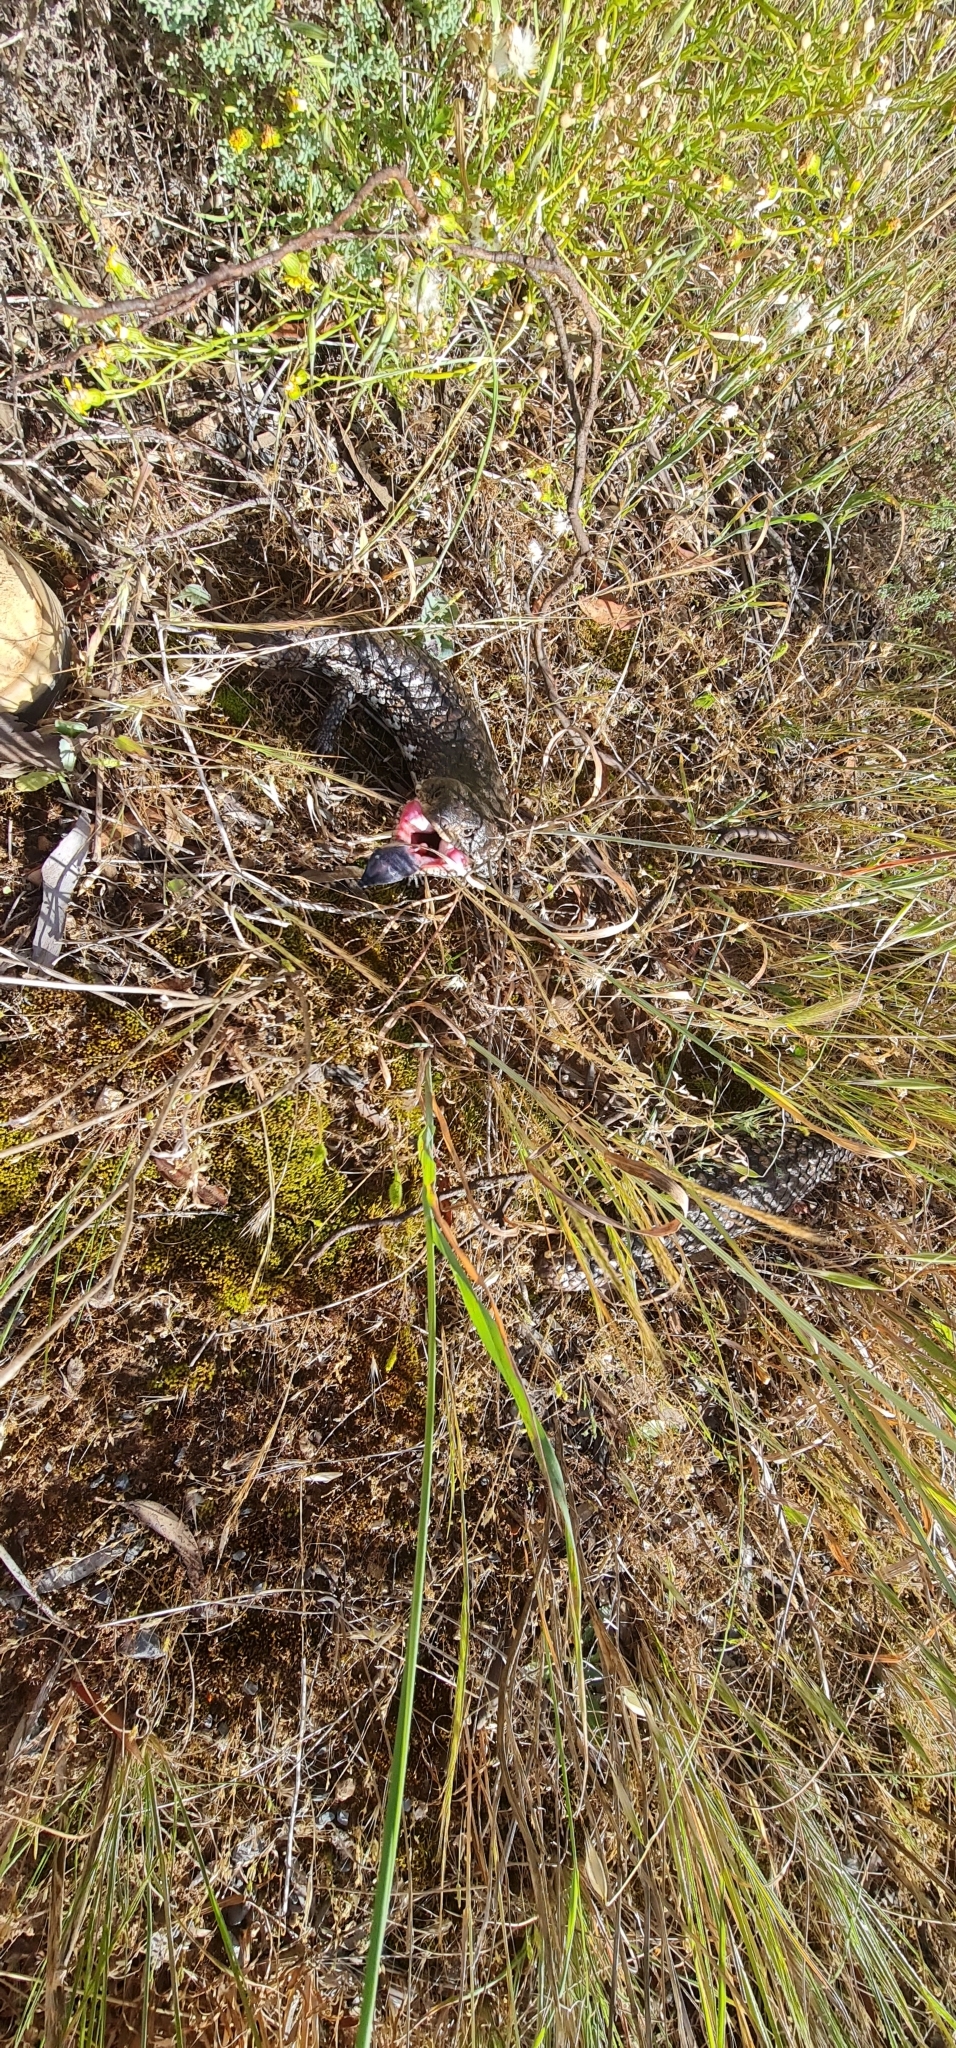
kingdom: Animalia
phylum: Chordata
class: Squamata
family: Scincidae
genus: Tiliqua
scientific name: Tiliqua rugosa
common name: Pinecone lizard
